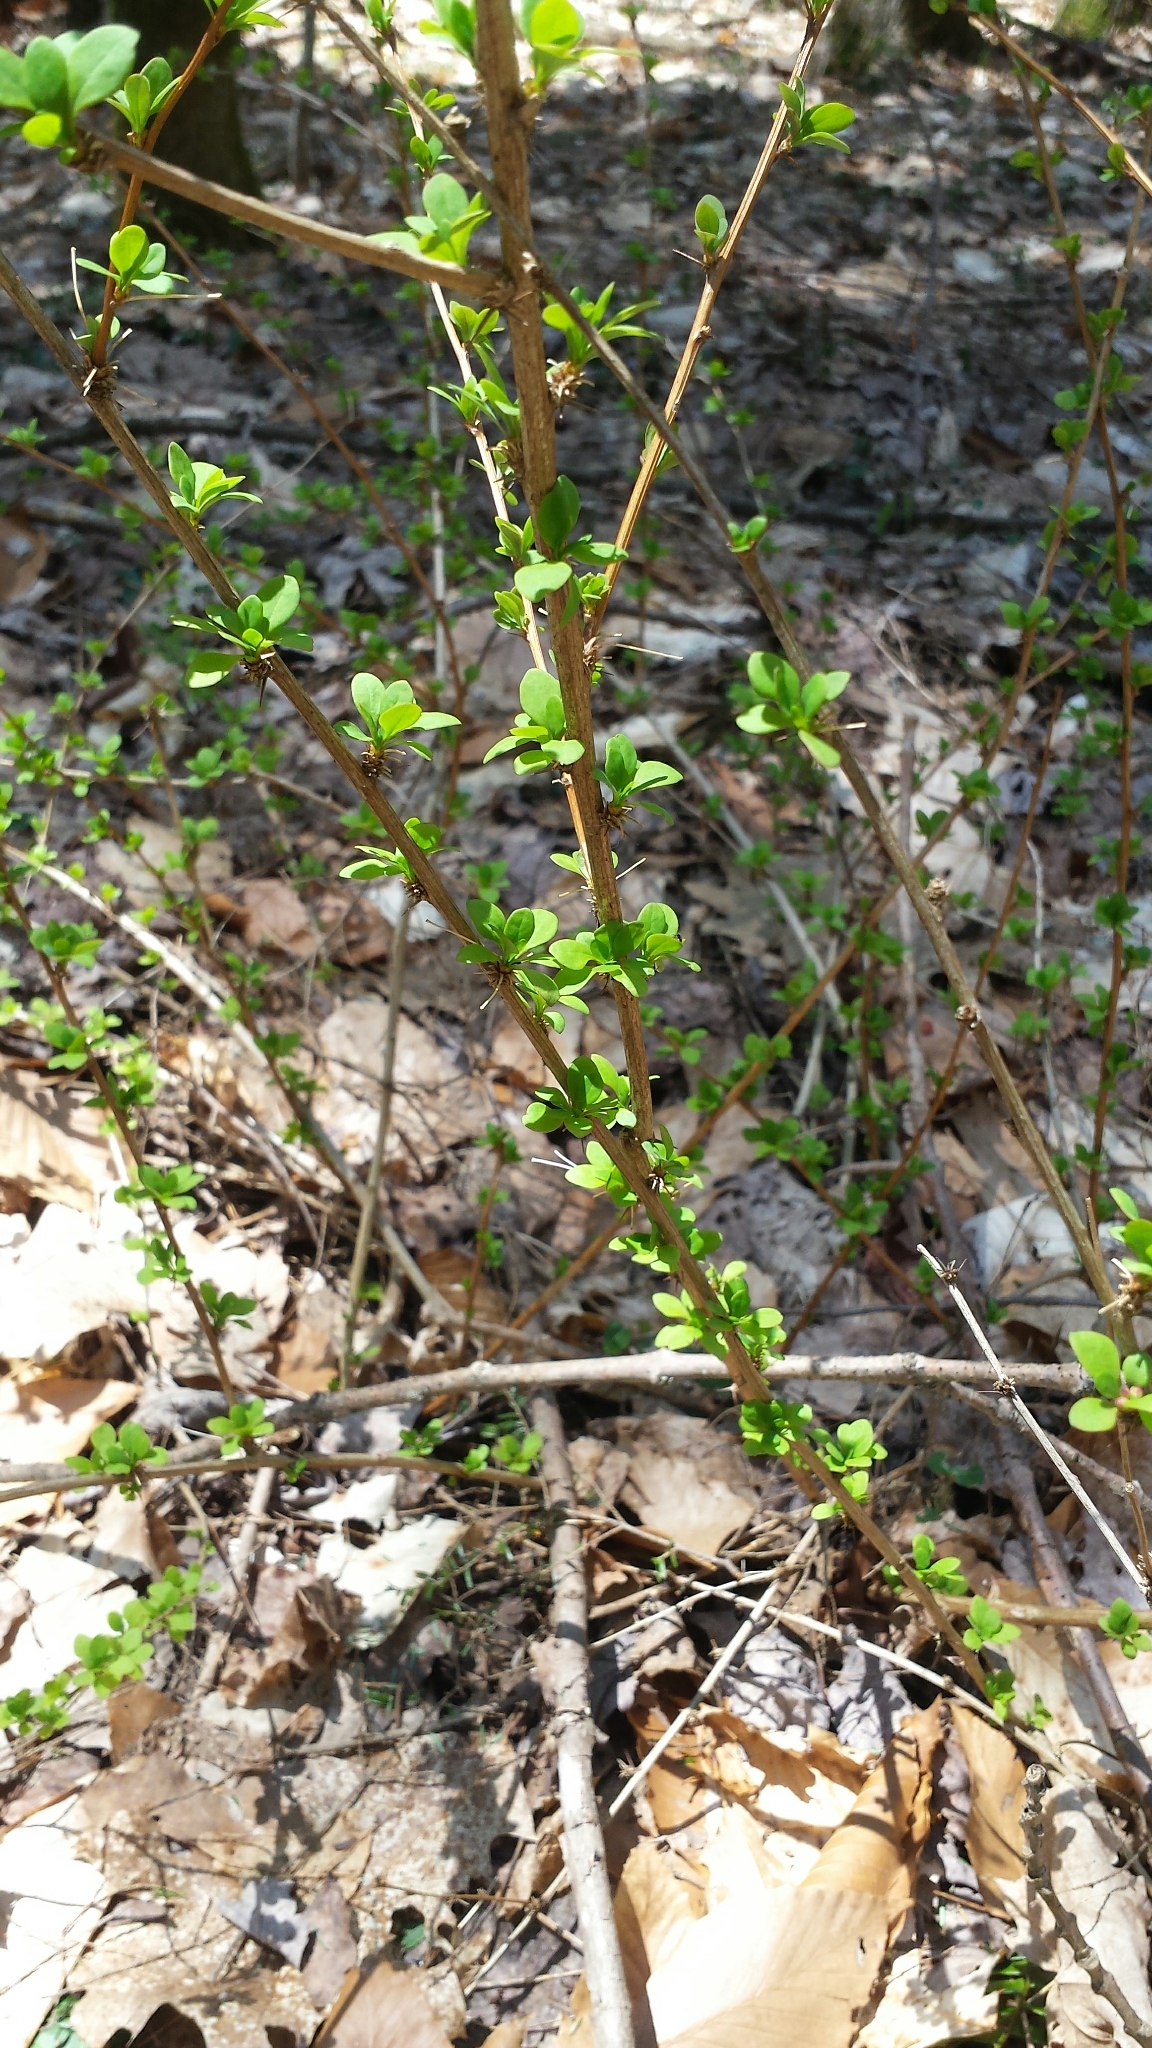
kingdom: Plantae
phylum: Tracheophyta
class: Magnoliopsida
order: Ranunculales
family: Berberidaceae
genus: Berberis
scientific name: Berberis thunbergii
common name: Japanese barberry
